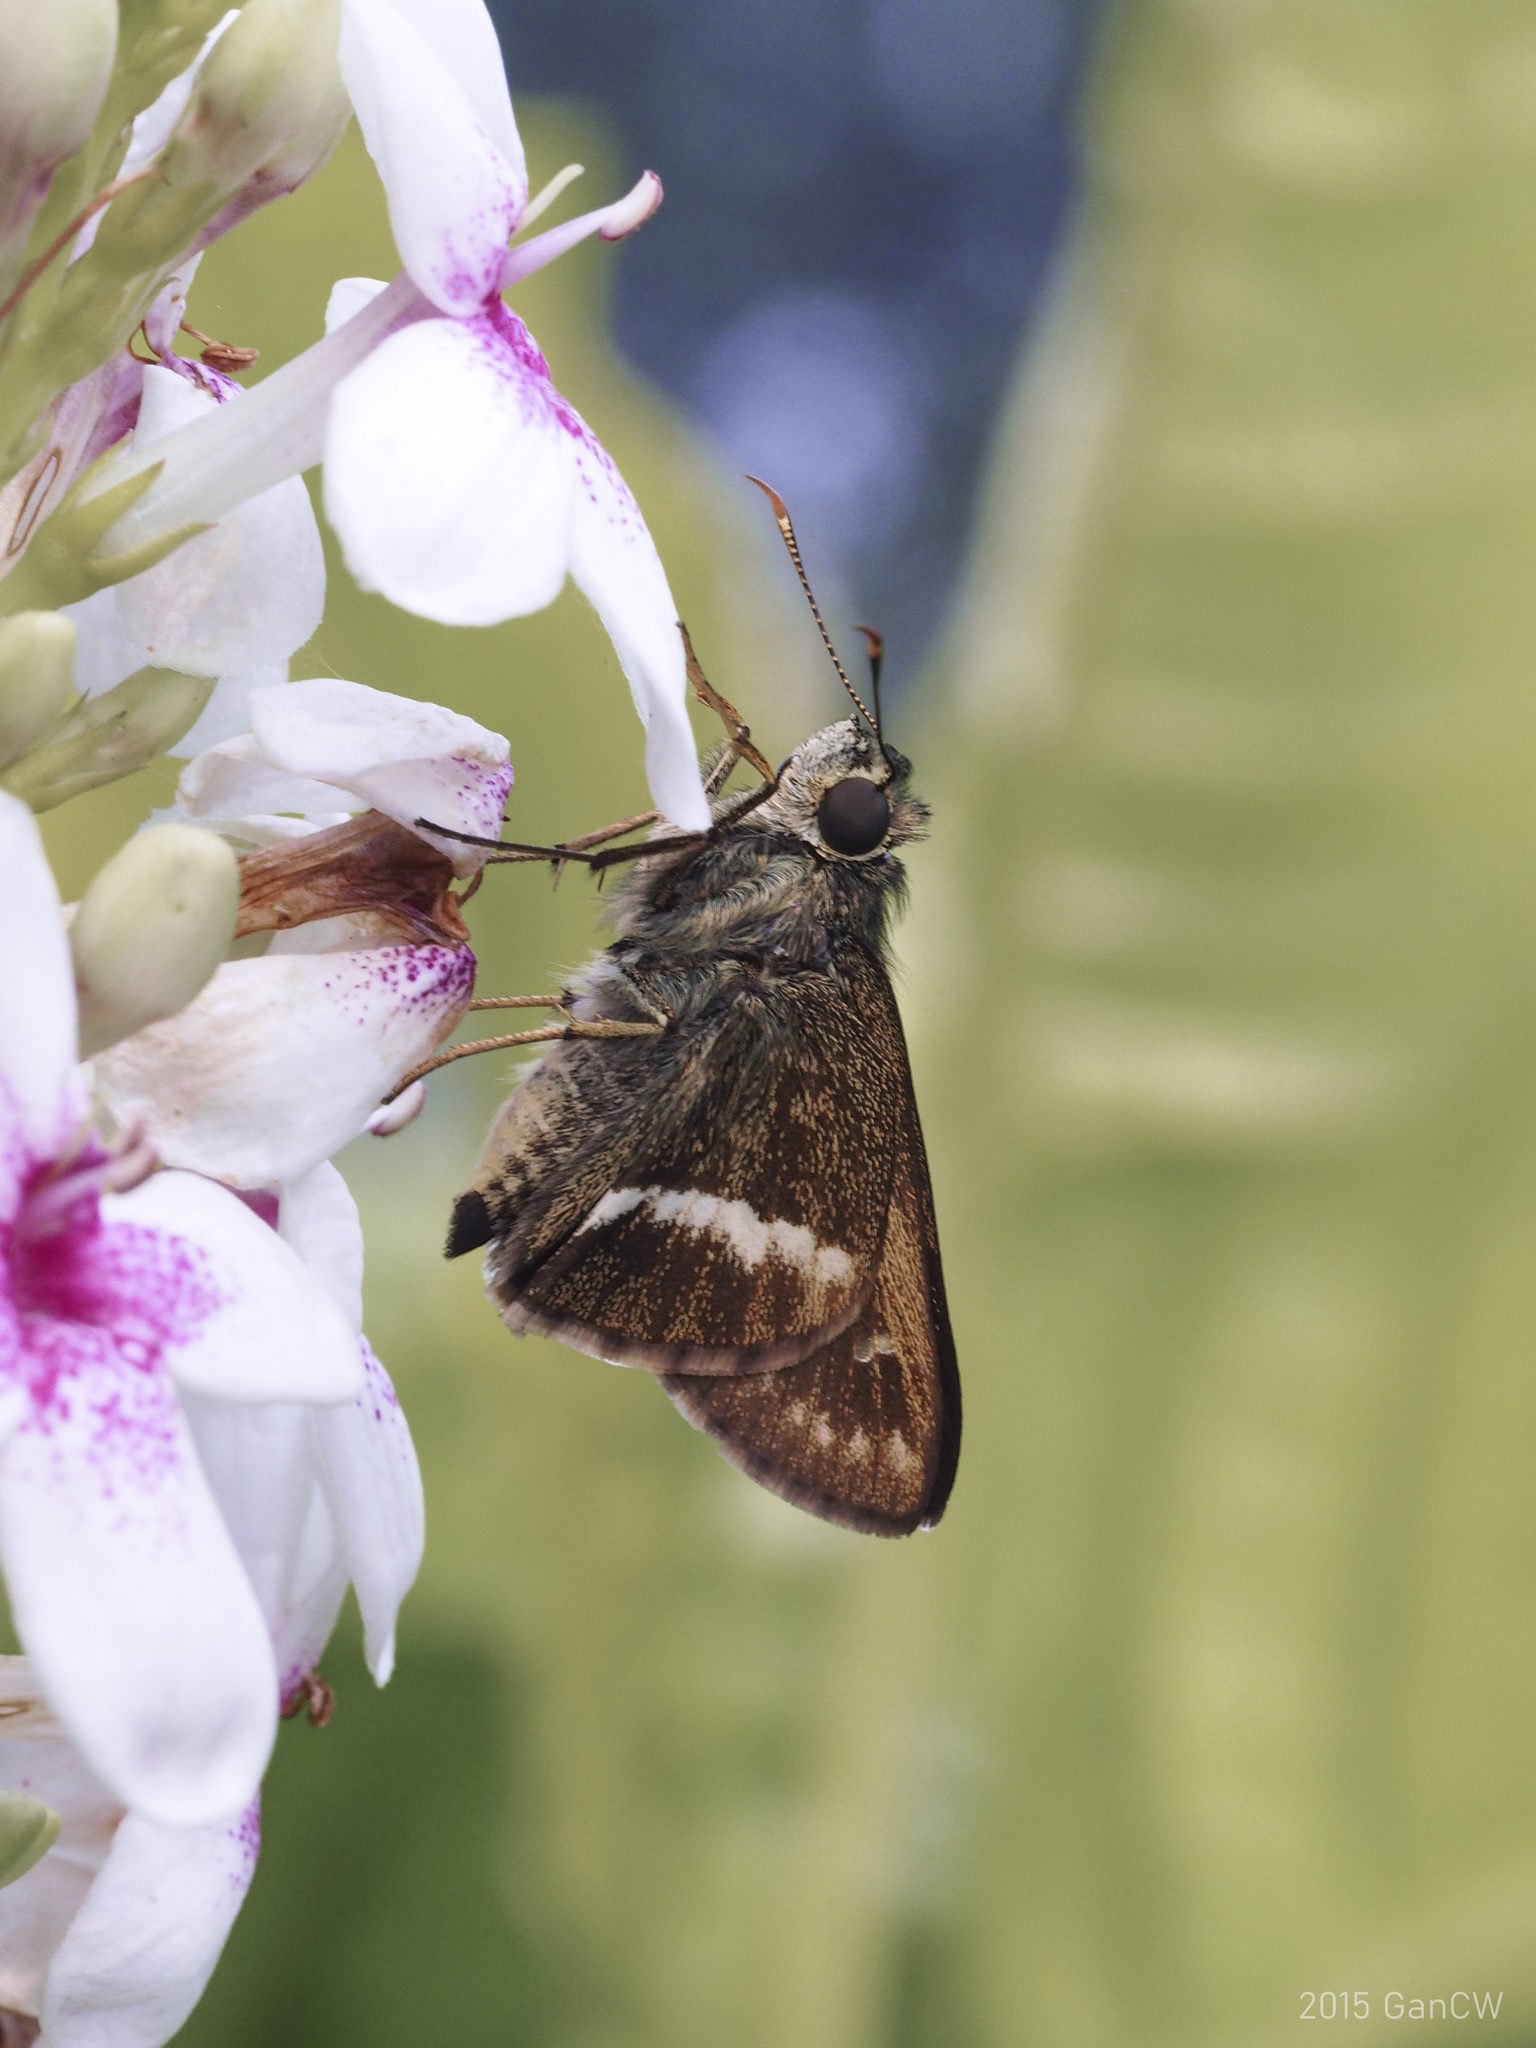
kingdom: Animalia
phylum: Arthropoda
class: Insecta
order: Lepidoptera
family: Hesperiidae
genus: Halpe
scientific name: Halpe elana
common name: Narrow-banded ace
